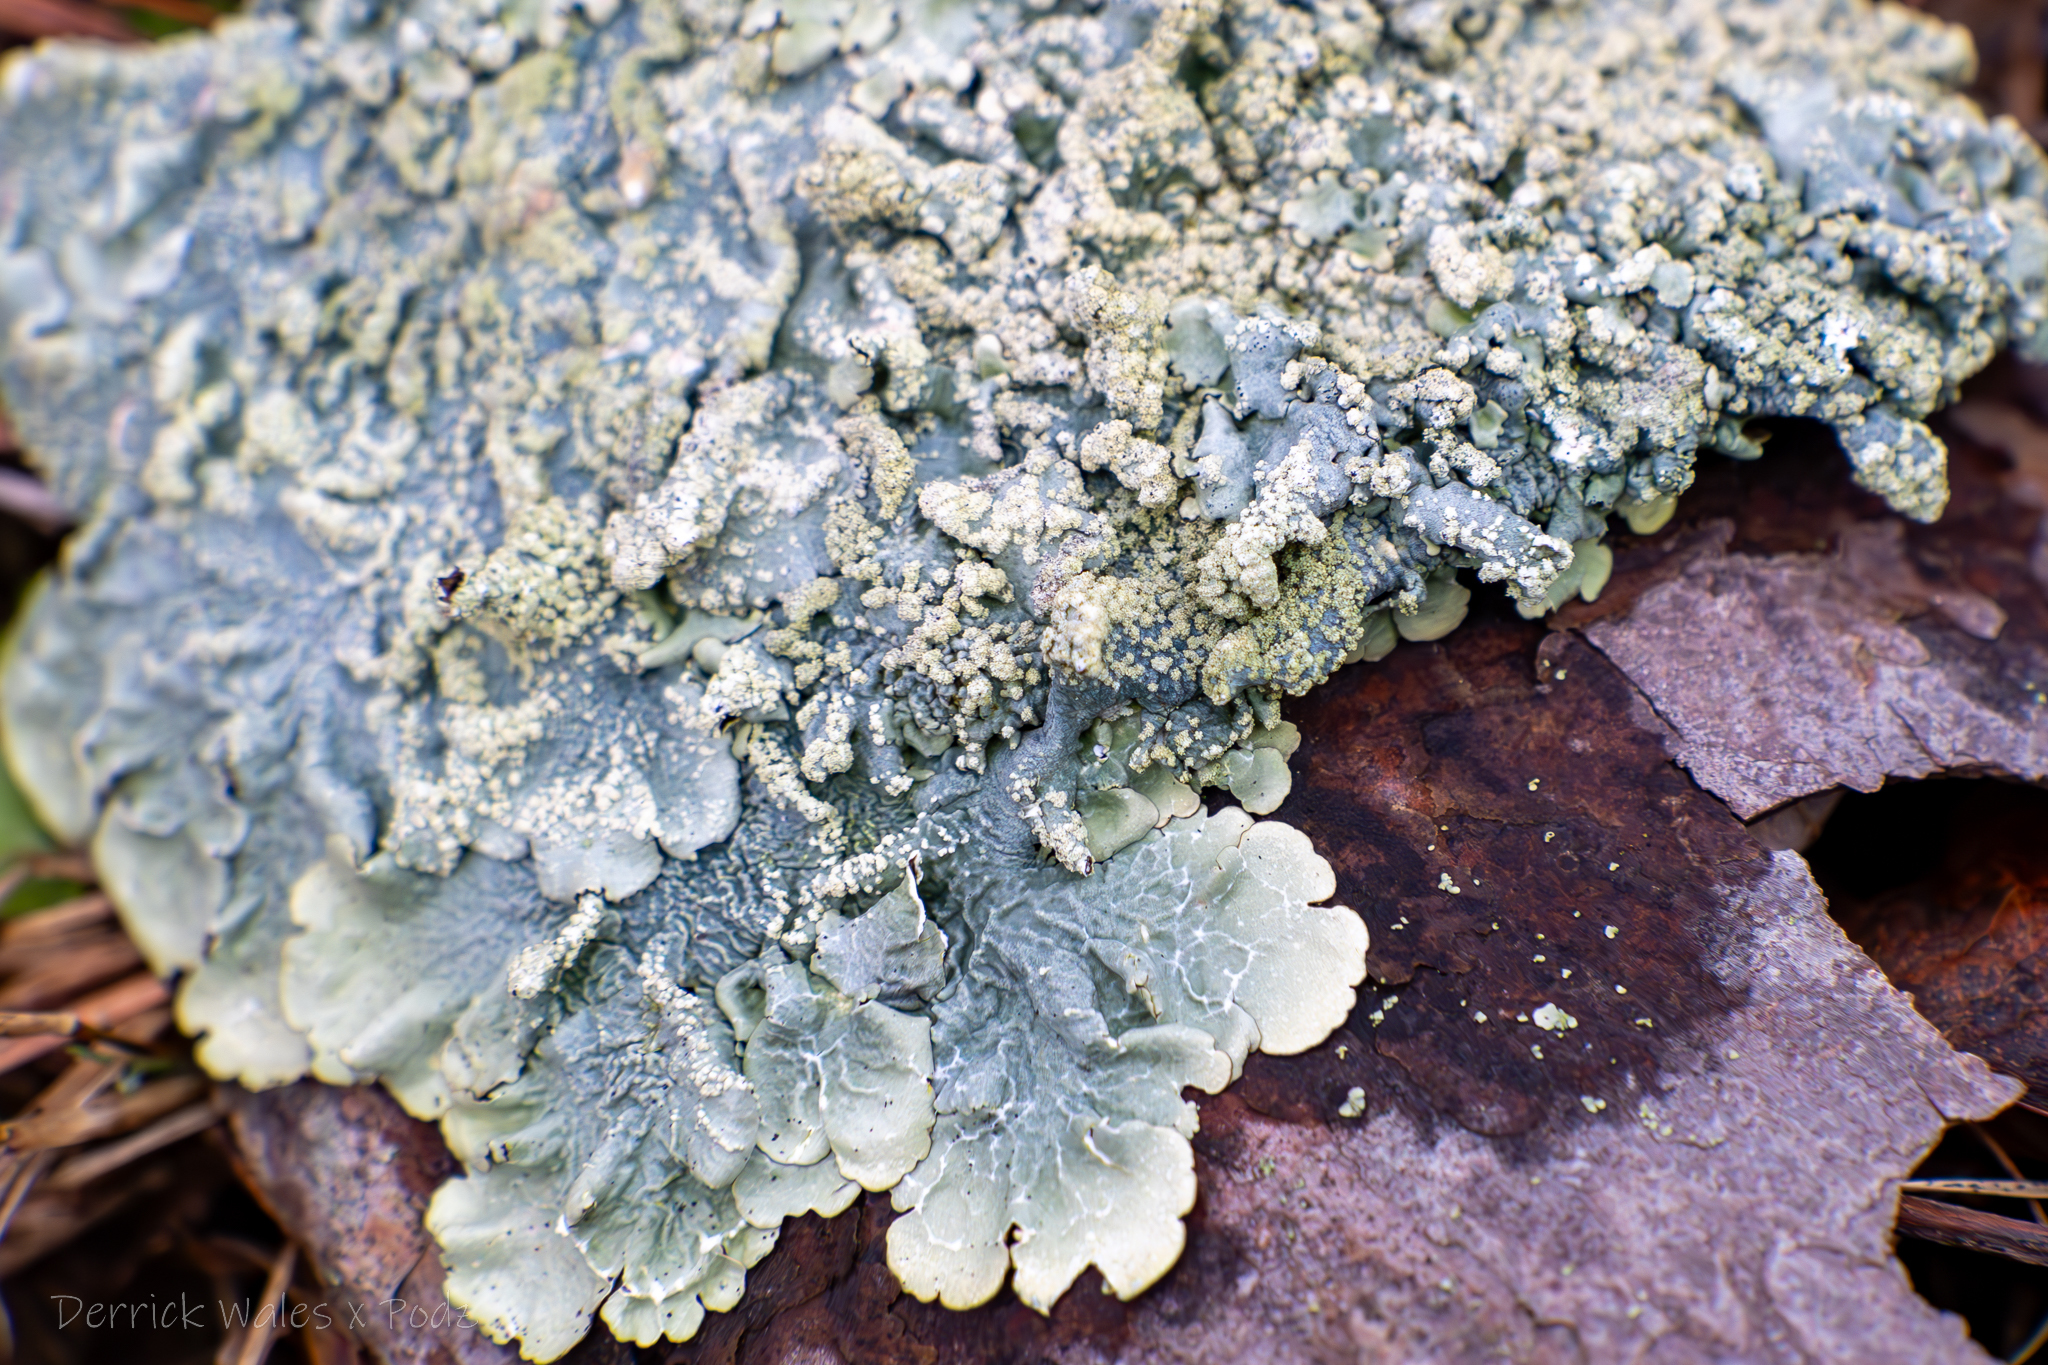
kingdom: Fungi
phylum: Ascomycota
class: Lecanoromycetes
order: Lecanorales
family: Parmeliaceae
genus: Crespoa
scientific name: Crespoa crozalsiana
